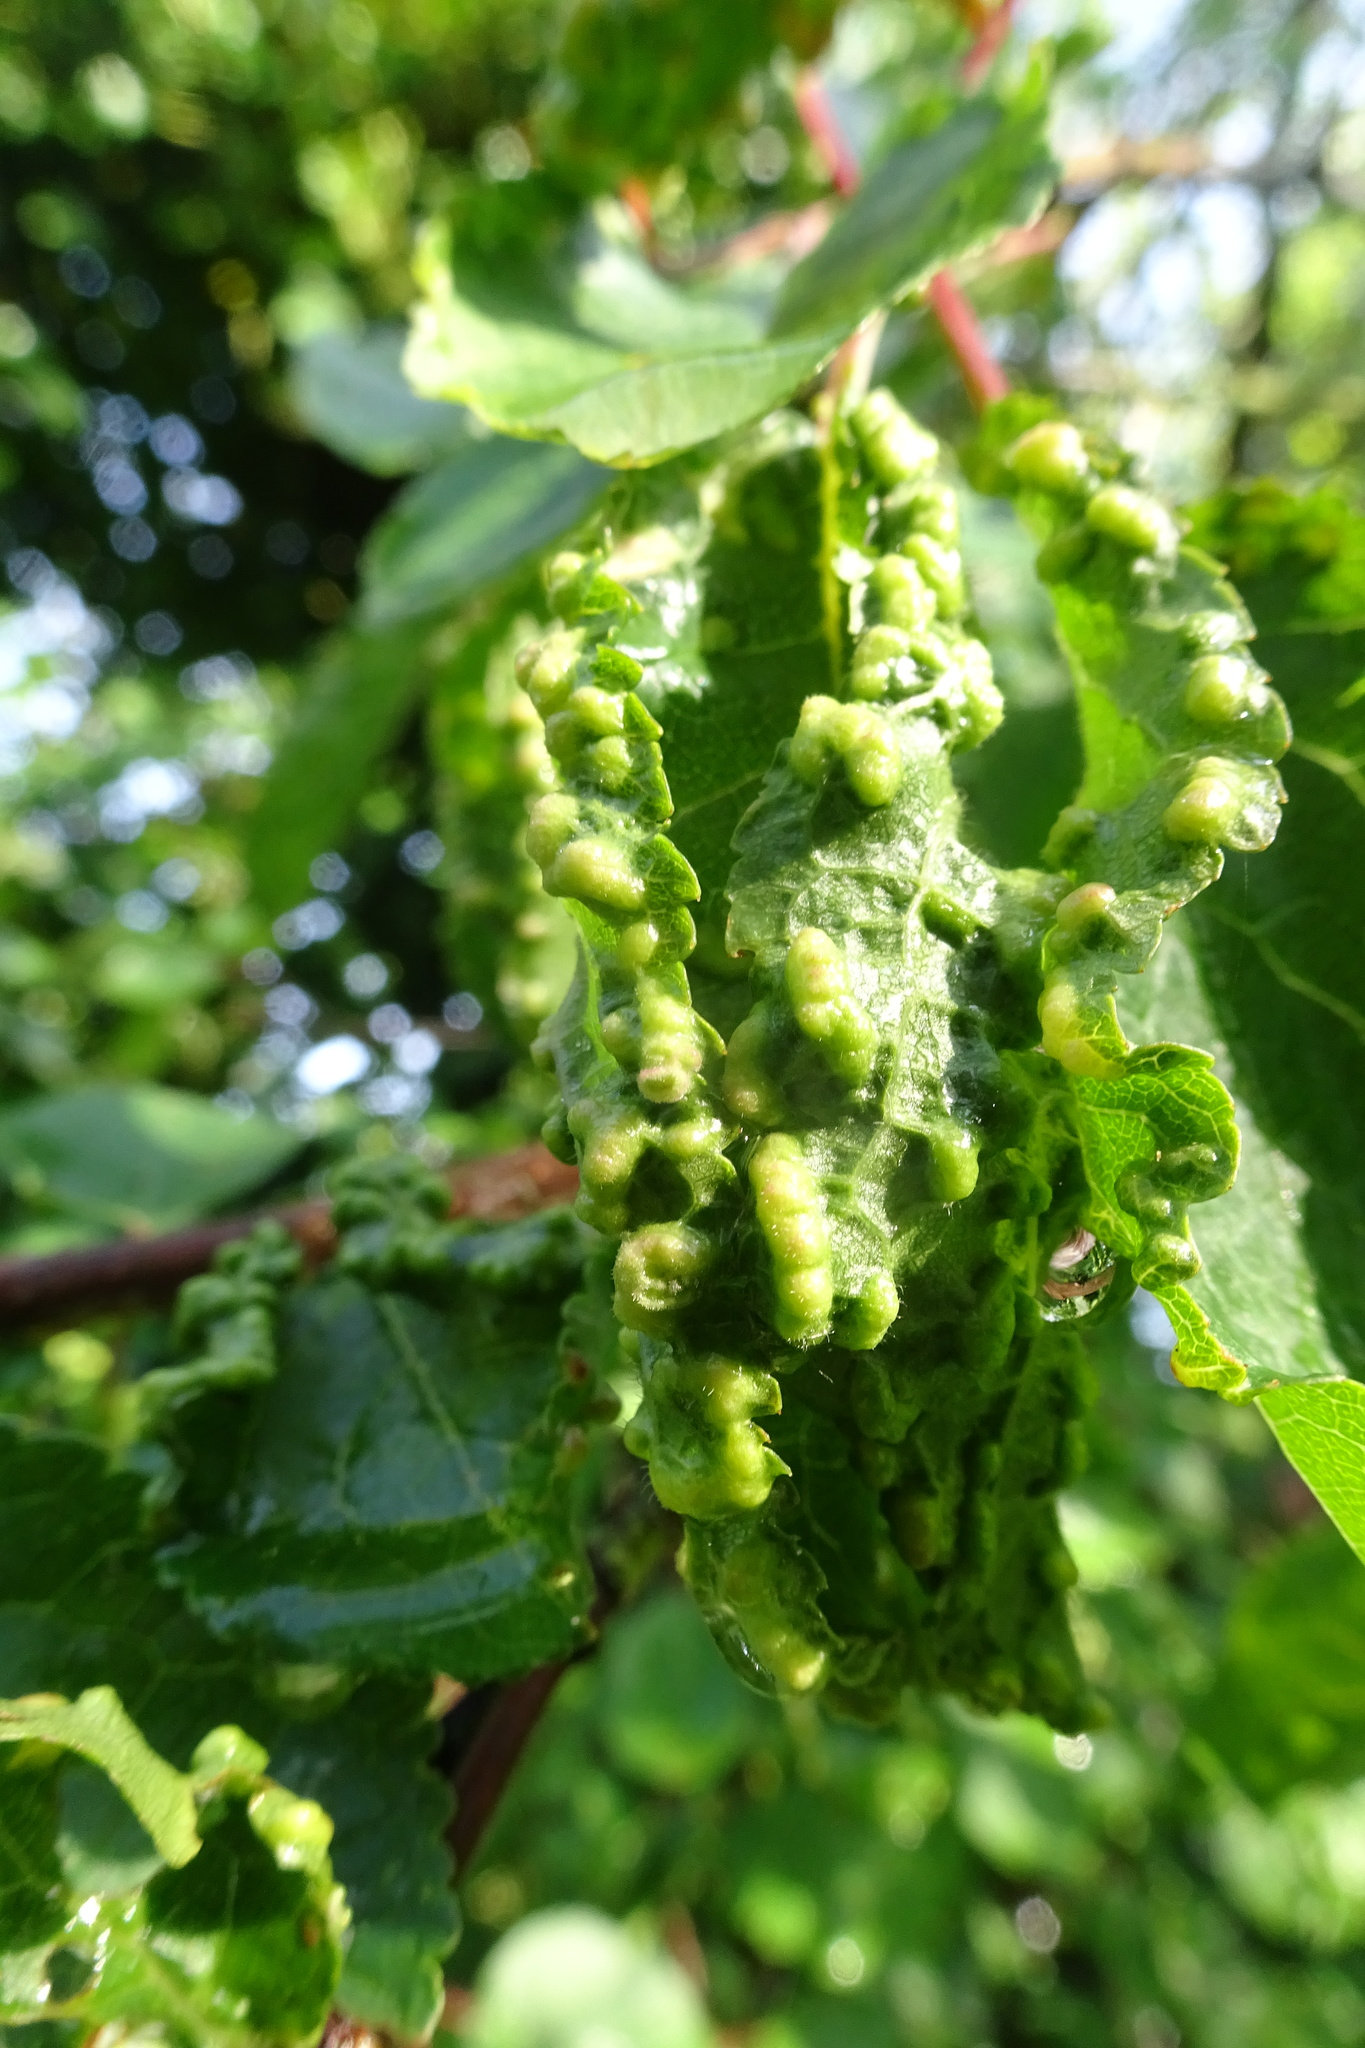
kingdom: Animalia
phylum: Arthropoda
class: Arachnida
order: Trombidiformes
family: Eriophyidae
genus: Eriophyes
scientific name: Eriophyes laevis
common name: Alder leaf gall mite
